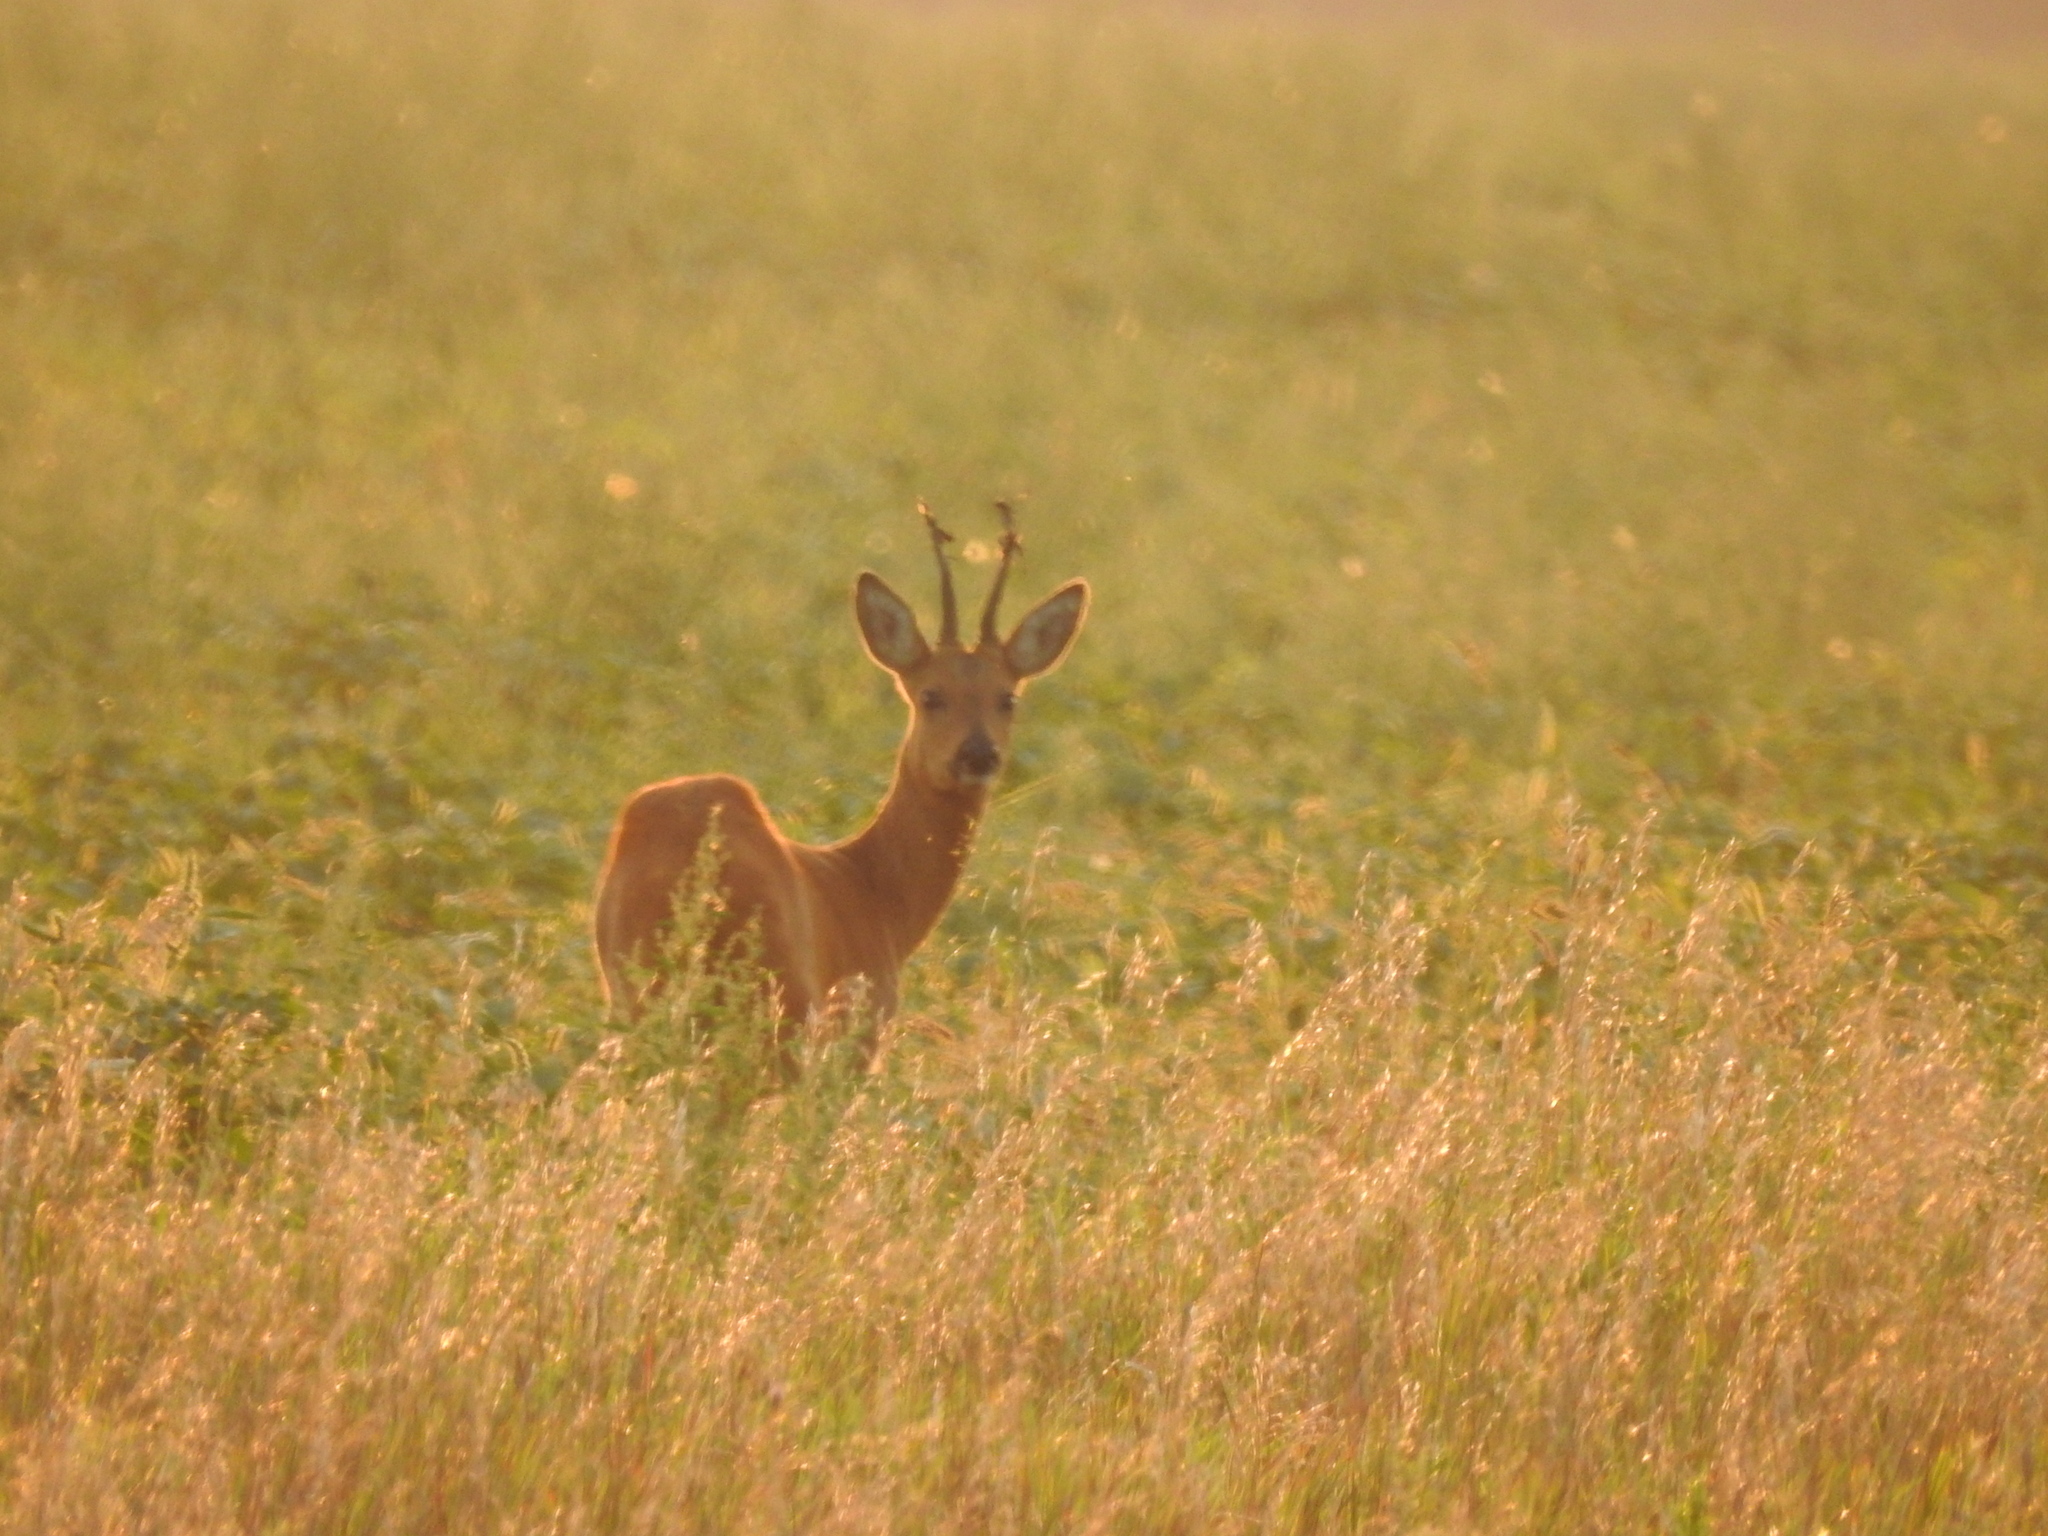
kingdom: Animalia
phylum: Chordata
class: Mammalia
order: Artiodactyla
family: Cervidae
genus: Capreolus
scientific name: Capreolus pygargus
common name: Siberian roe
